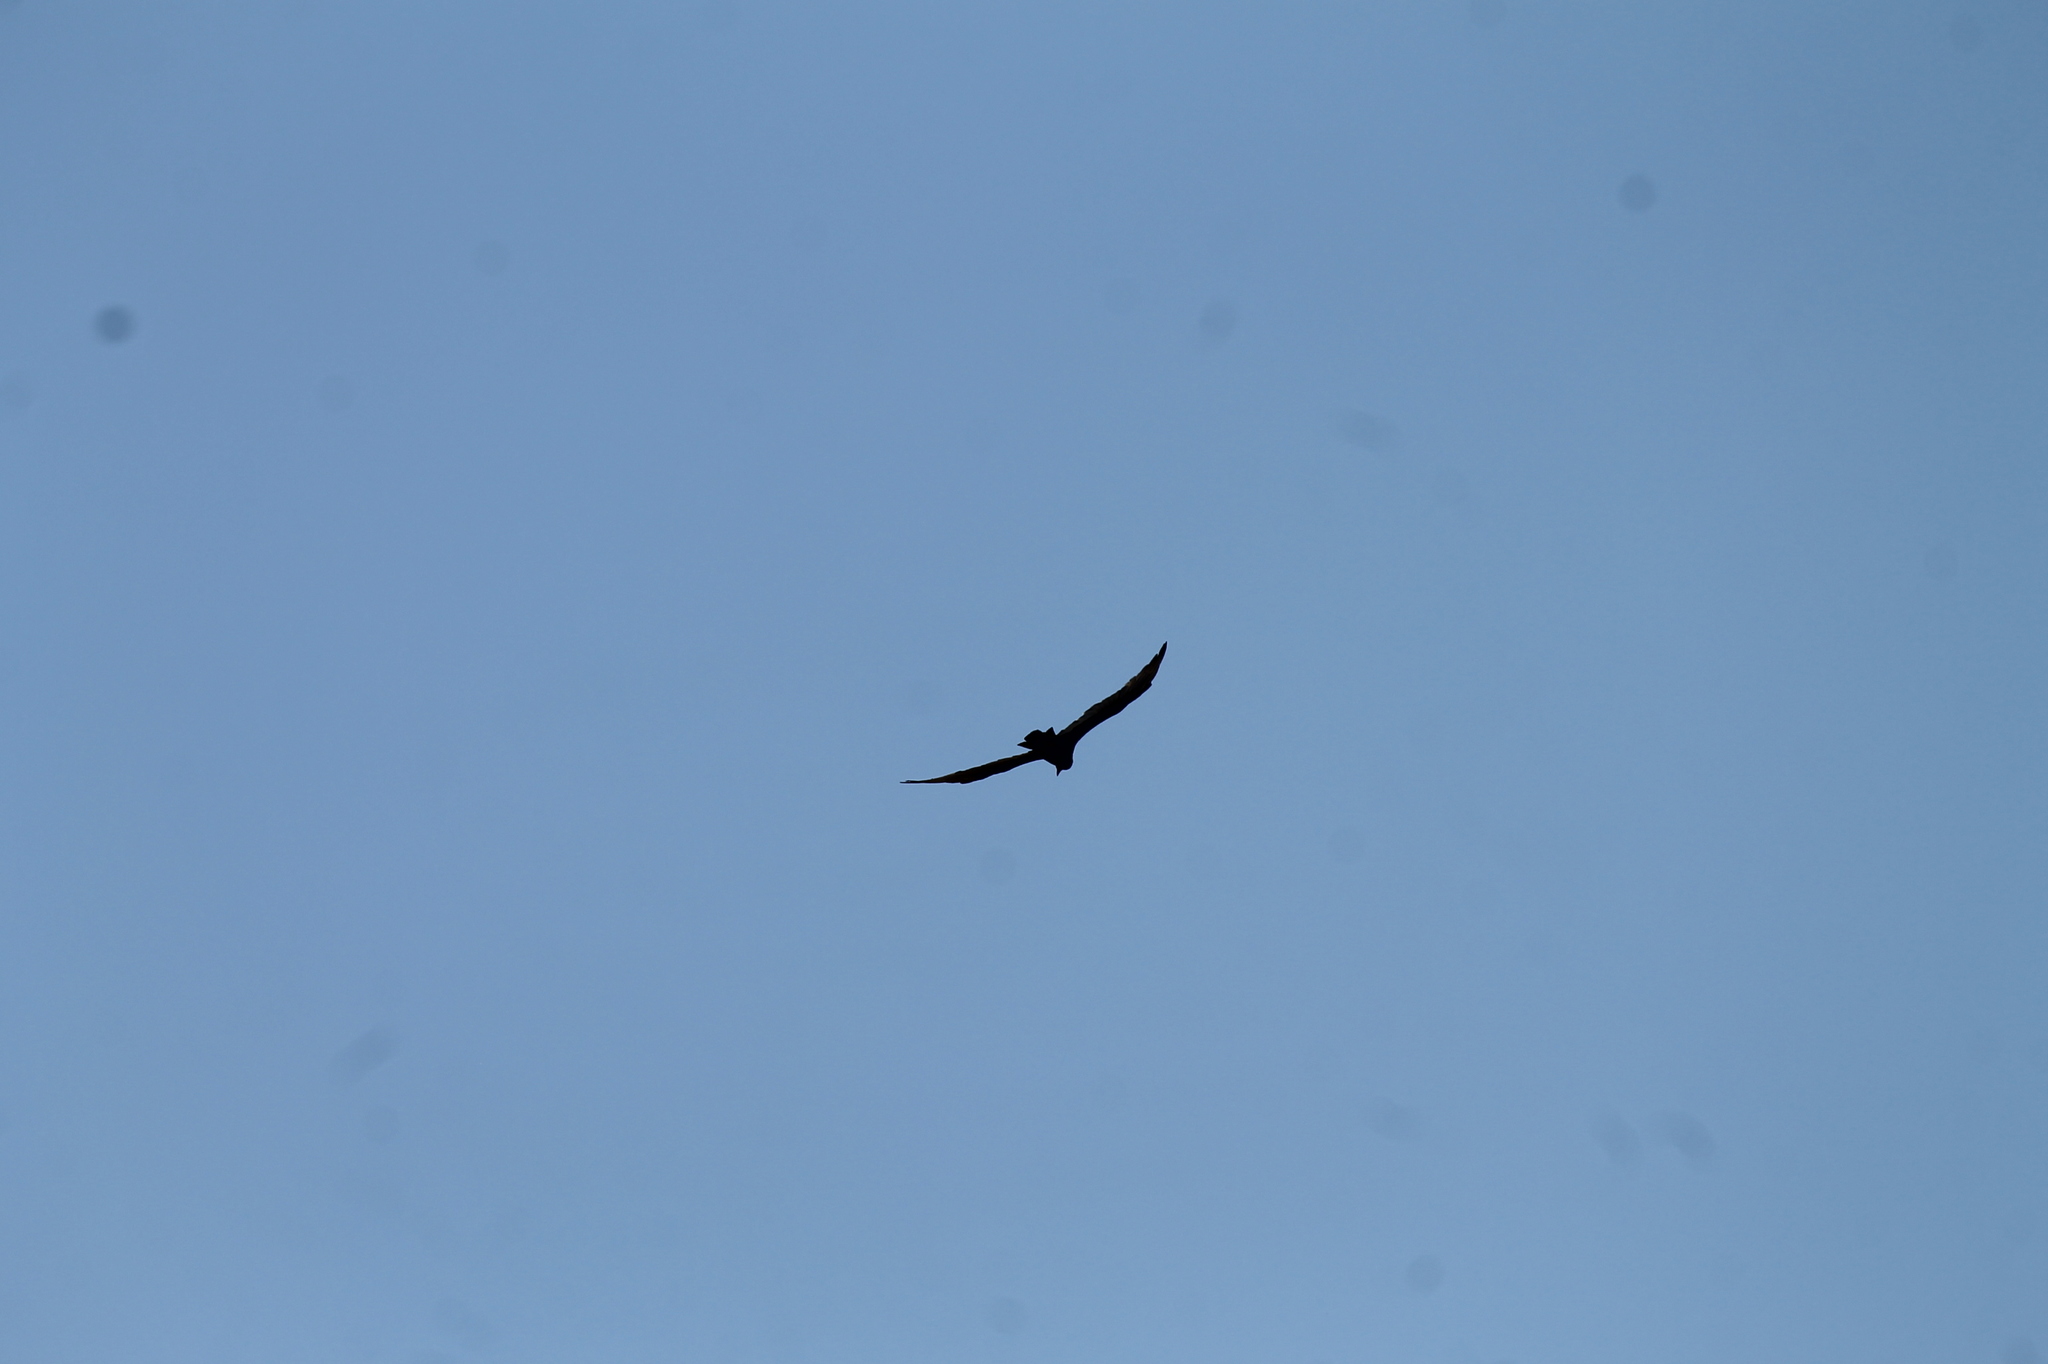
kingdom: Animalia
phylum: Chordata
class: Aves
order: Accipitriformes
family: Cathartidae
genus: Cathartes
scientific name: Cathartes aura
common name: Turkey vulture
